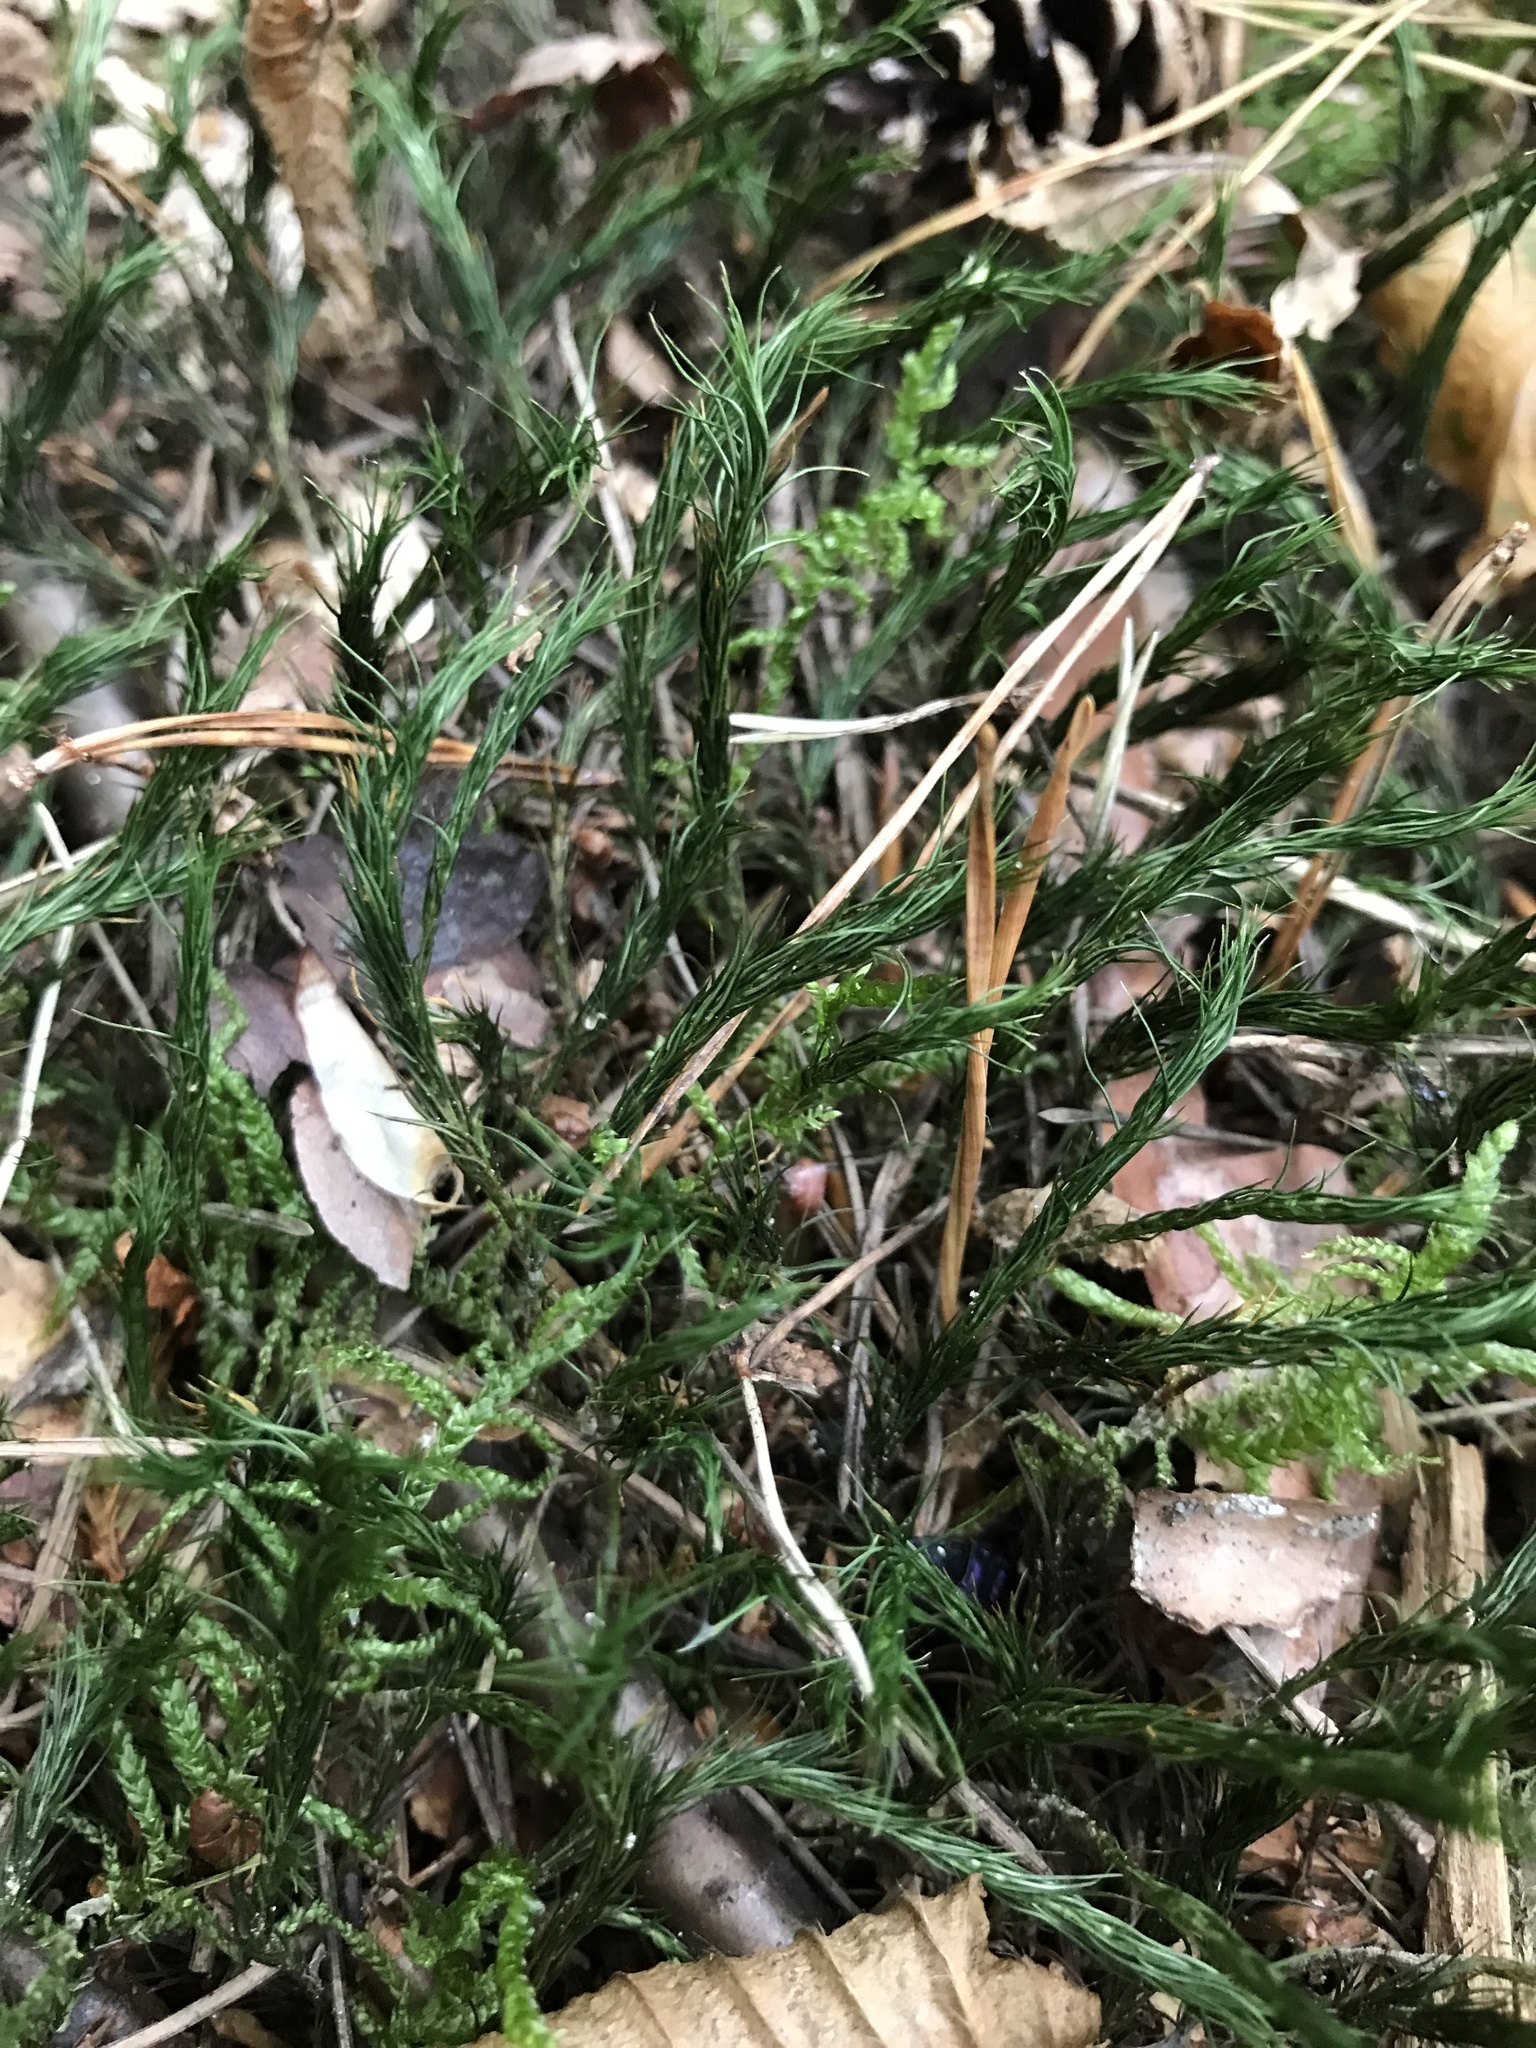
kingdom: Plantae
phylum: Bryophyta
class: Polytrichopsida
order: Polytrichales
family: Polytrichaceae
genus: Polytrichum
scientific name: Polytrichum formosum
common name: Bank haircap moss
